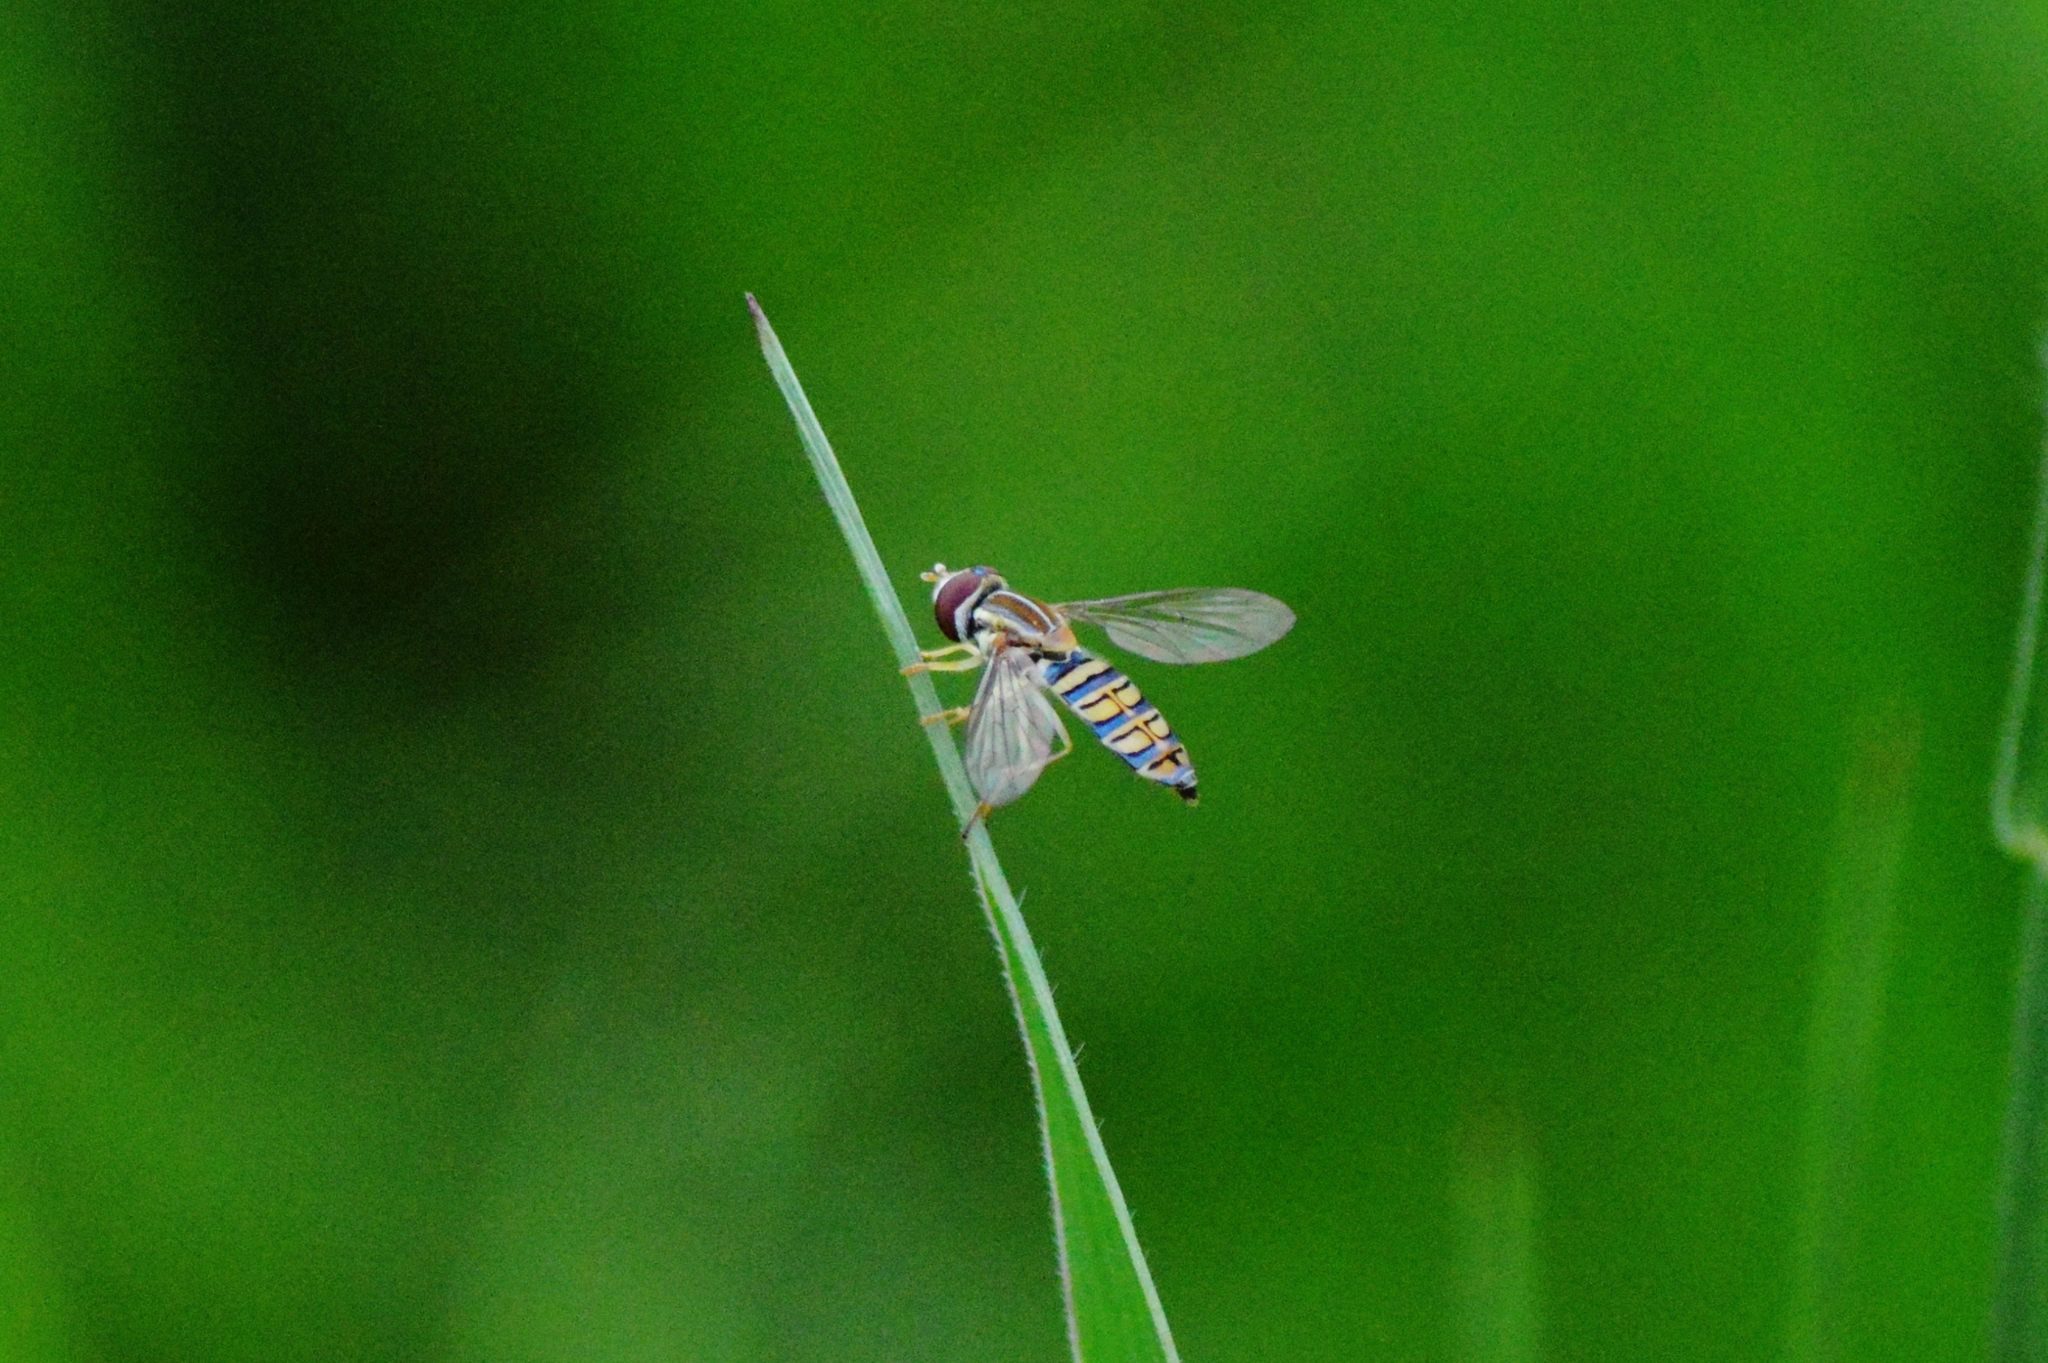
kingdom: Animalia
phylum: Arthropoda
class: Insecta
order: Diptera
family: Syrphidae
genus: Toxomerus
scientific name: Toxomerus politus
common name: Maize calligrapher
